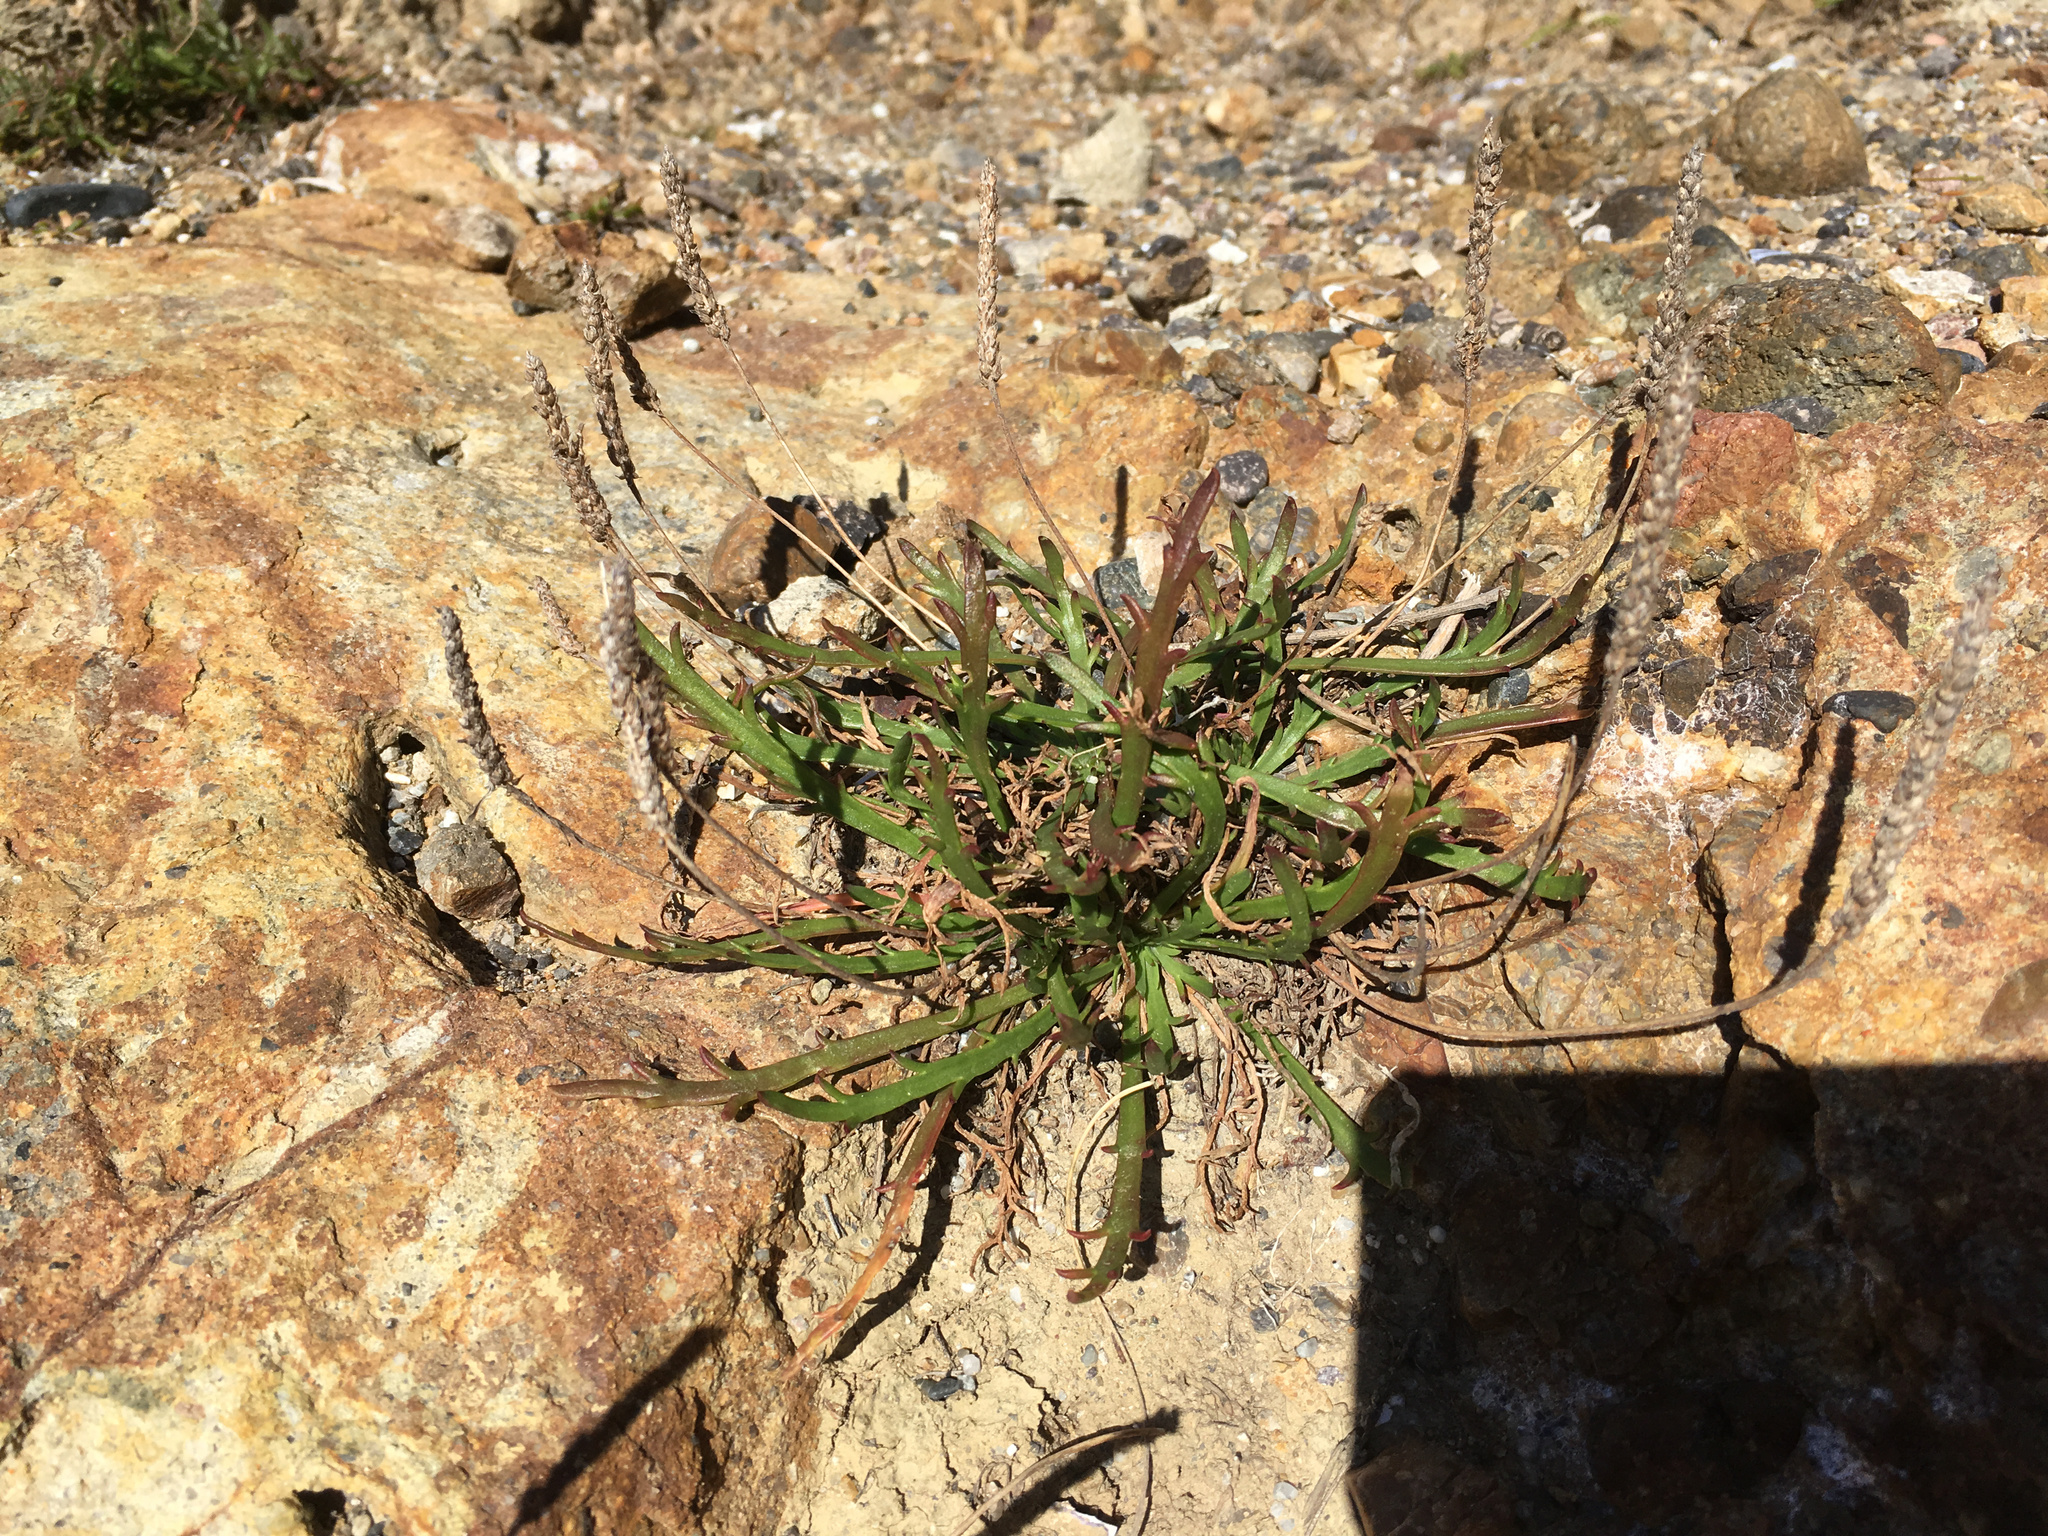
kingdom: Plantae
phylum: Tracheophyta
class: Magnoliopsida
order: Lamiales
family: Plantaginaceae
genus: Plantago
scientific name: Plantago coronopus
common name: Buck's-horn plantain
